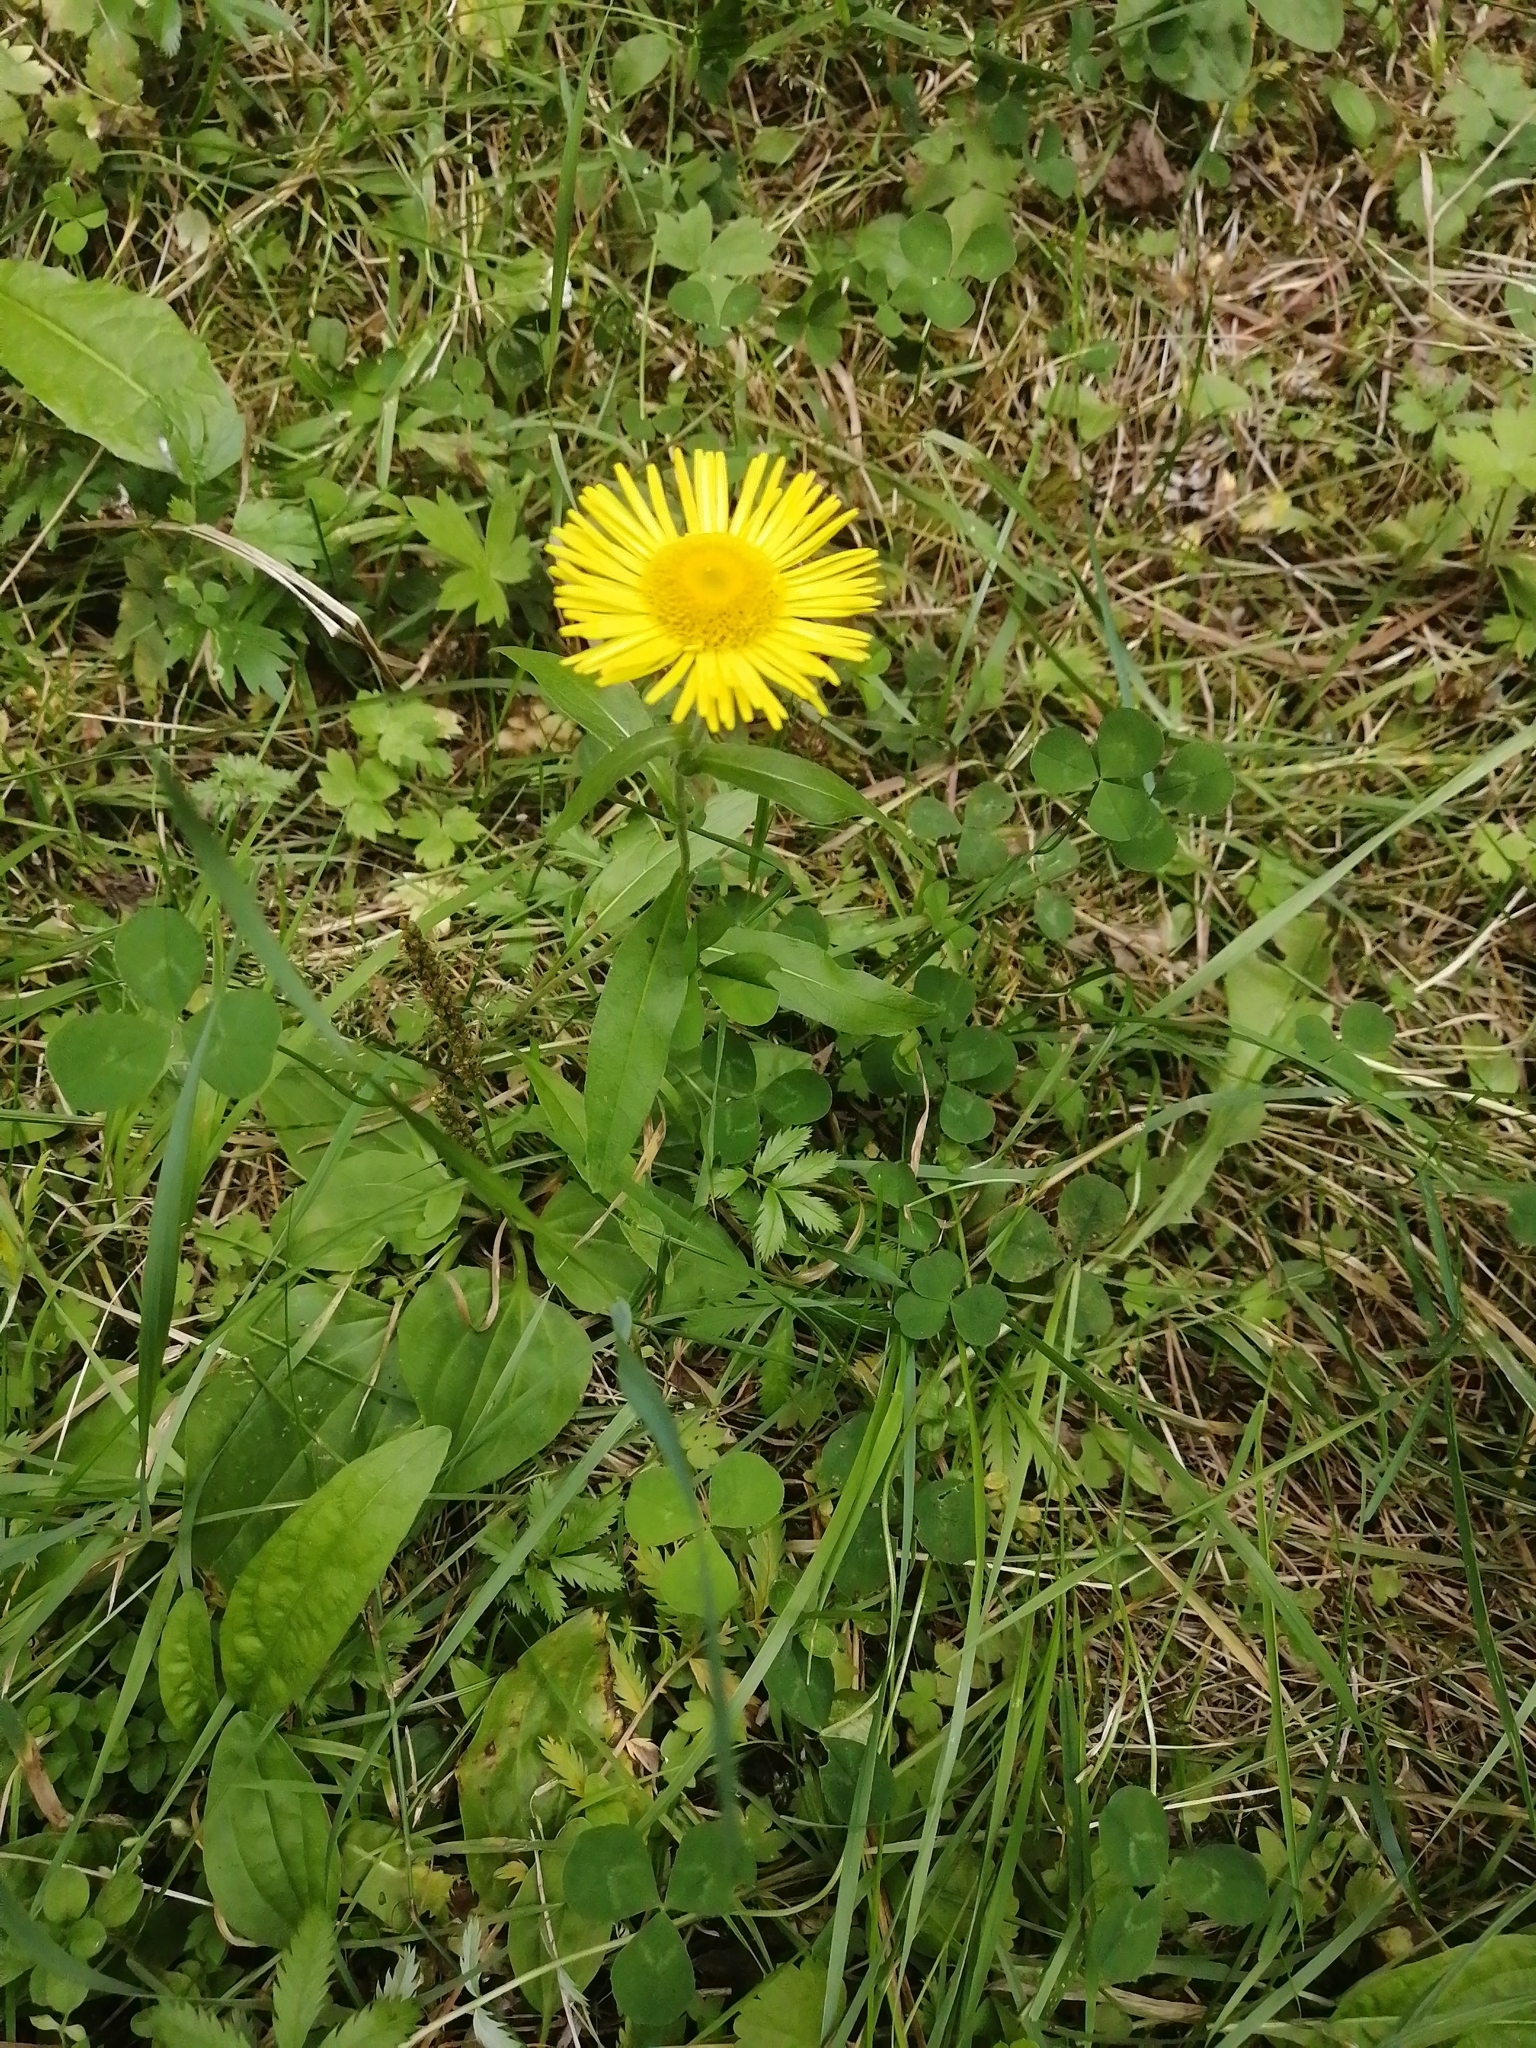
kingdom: Plantae
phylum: Tracheophyta
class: Magnoliopsida
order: Asterales
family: Asteraceae
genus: Pentanema
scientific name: Pentanema britannicum
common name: British elecampane
